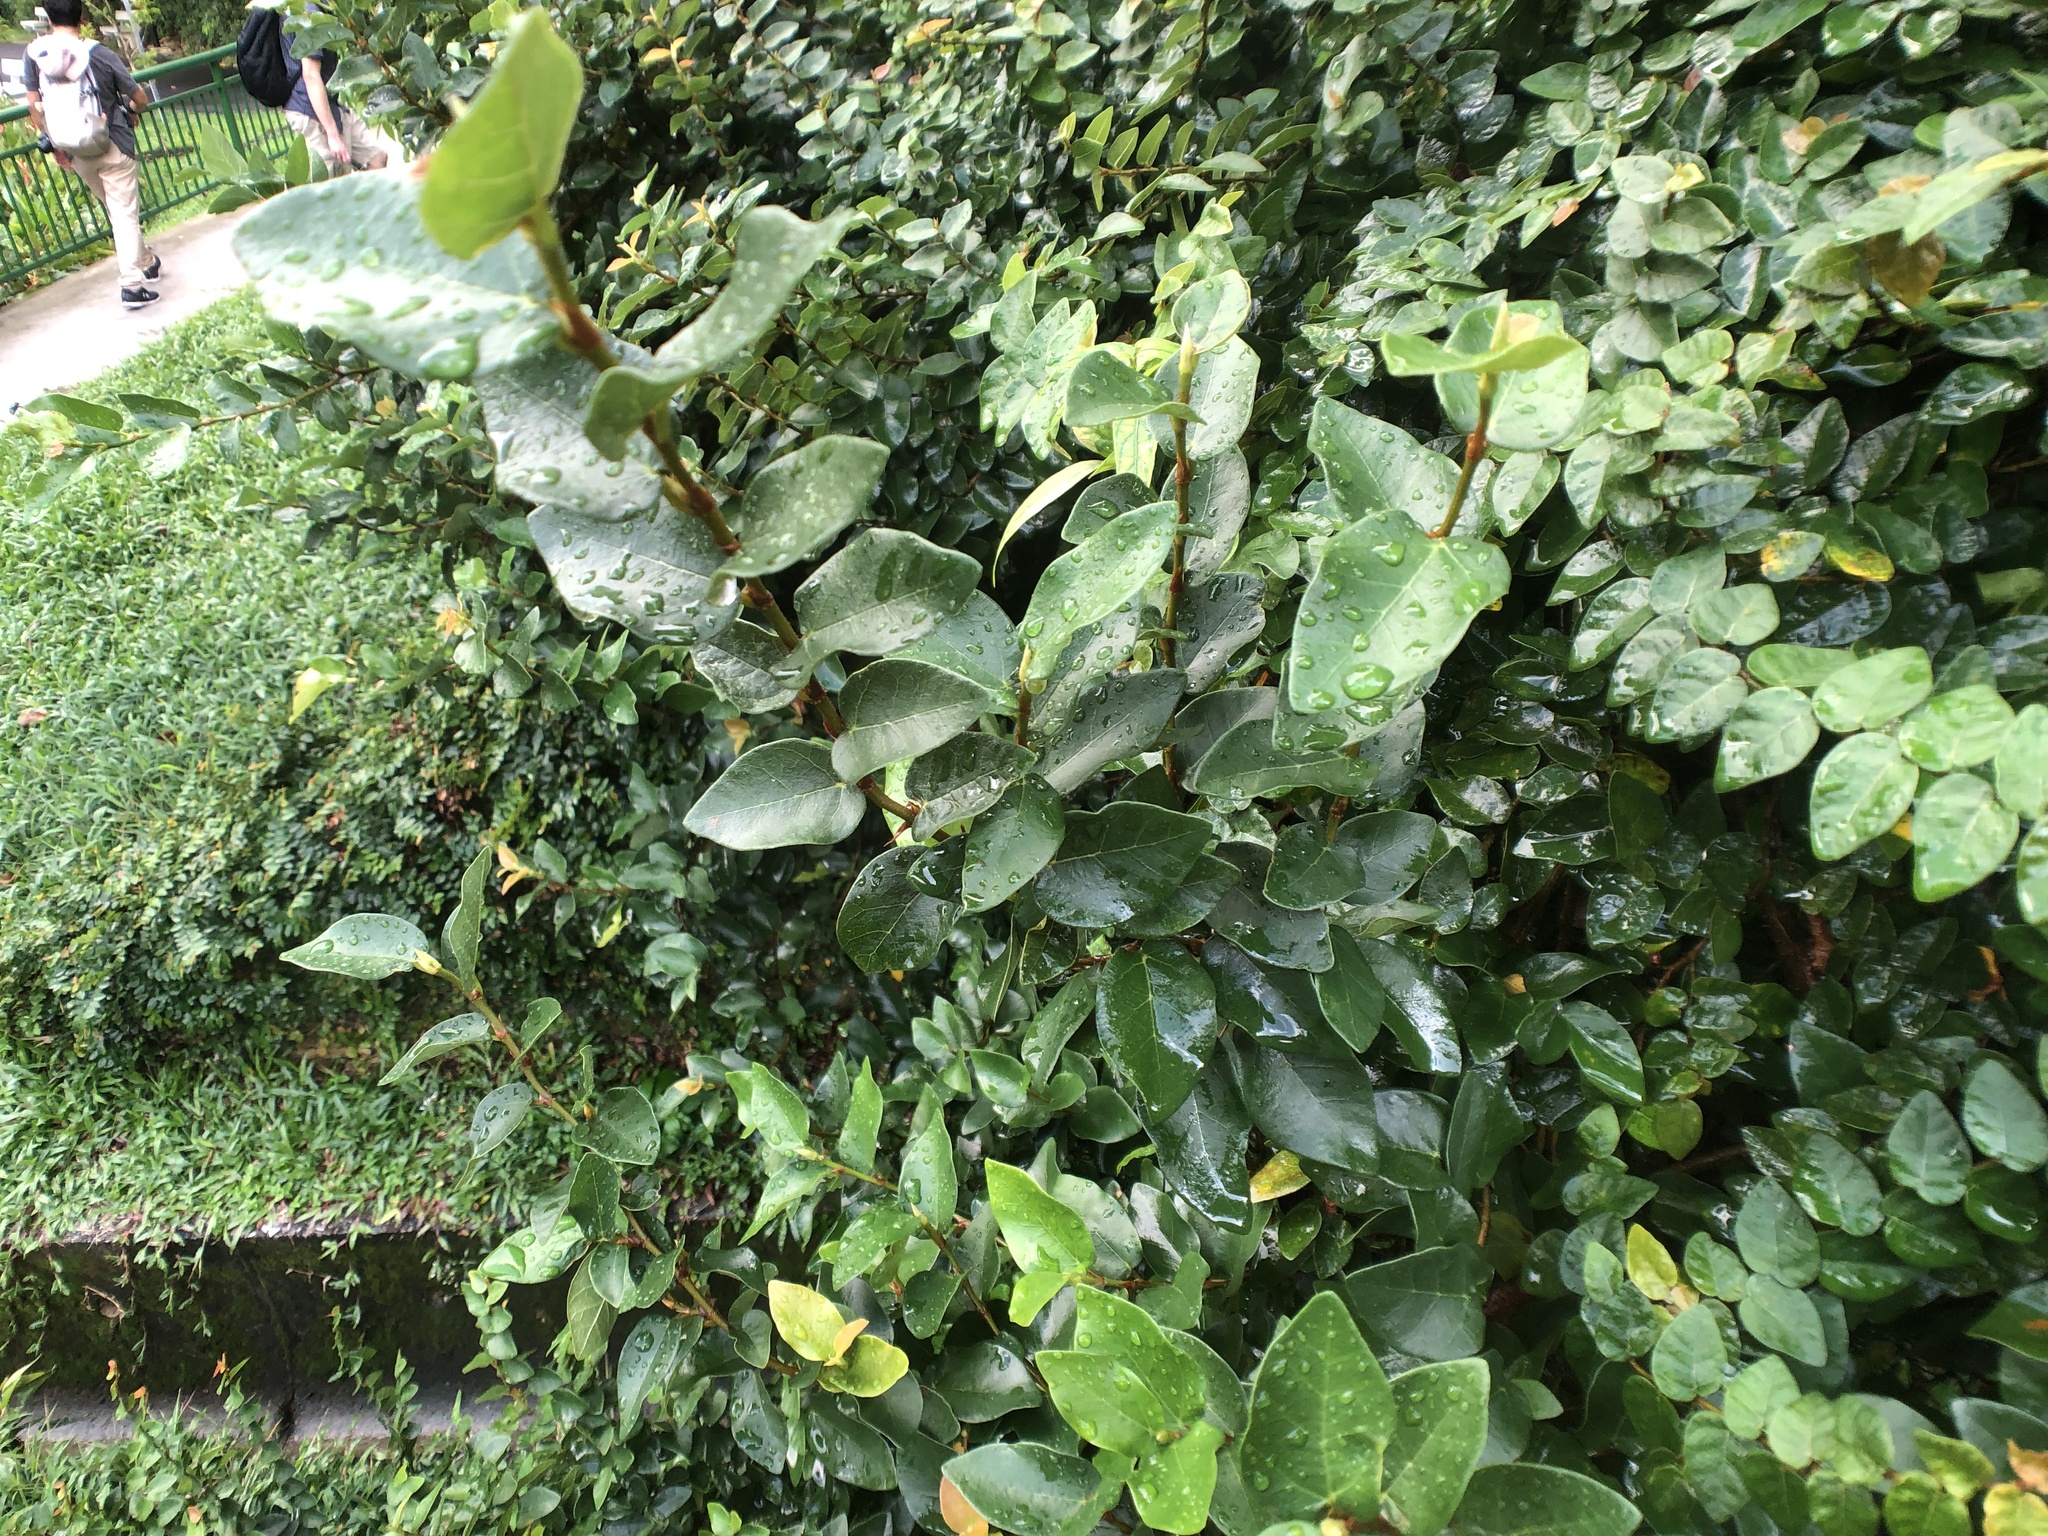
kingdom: Plantae
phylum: Tracheophyta
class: Magnoliopsida
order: Rosales
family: Moraceae
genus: Ficus
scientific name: Ficus pumila
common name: Climbingfig
